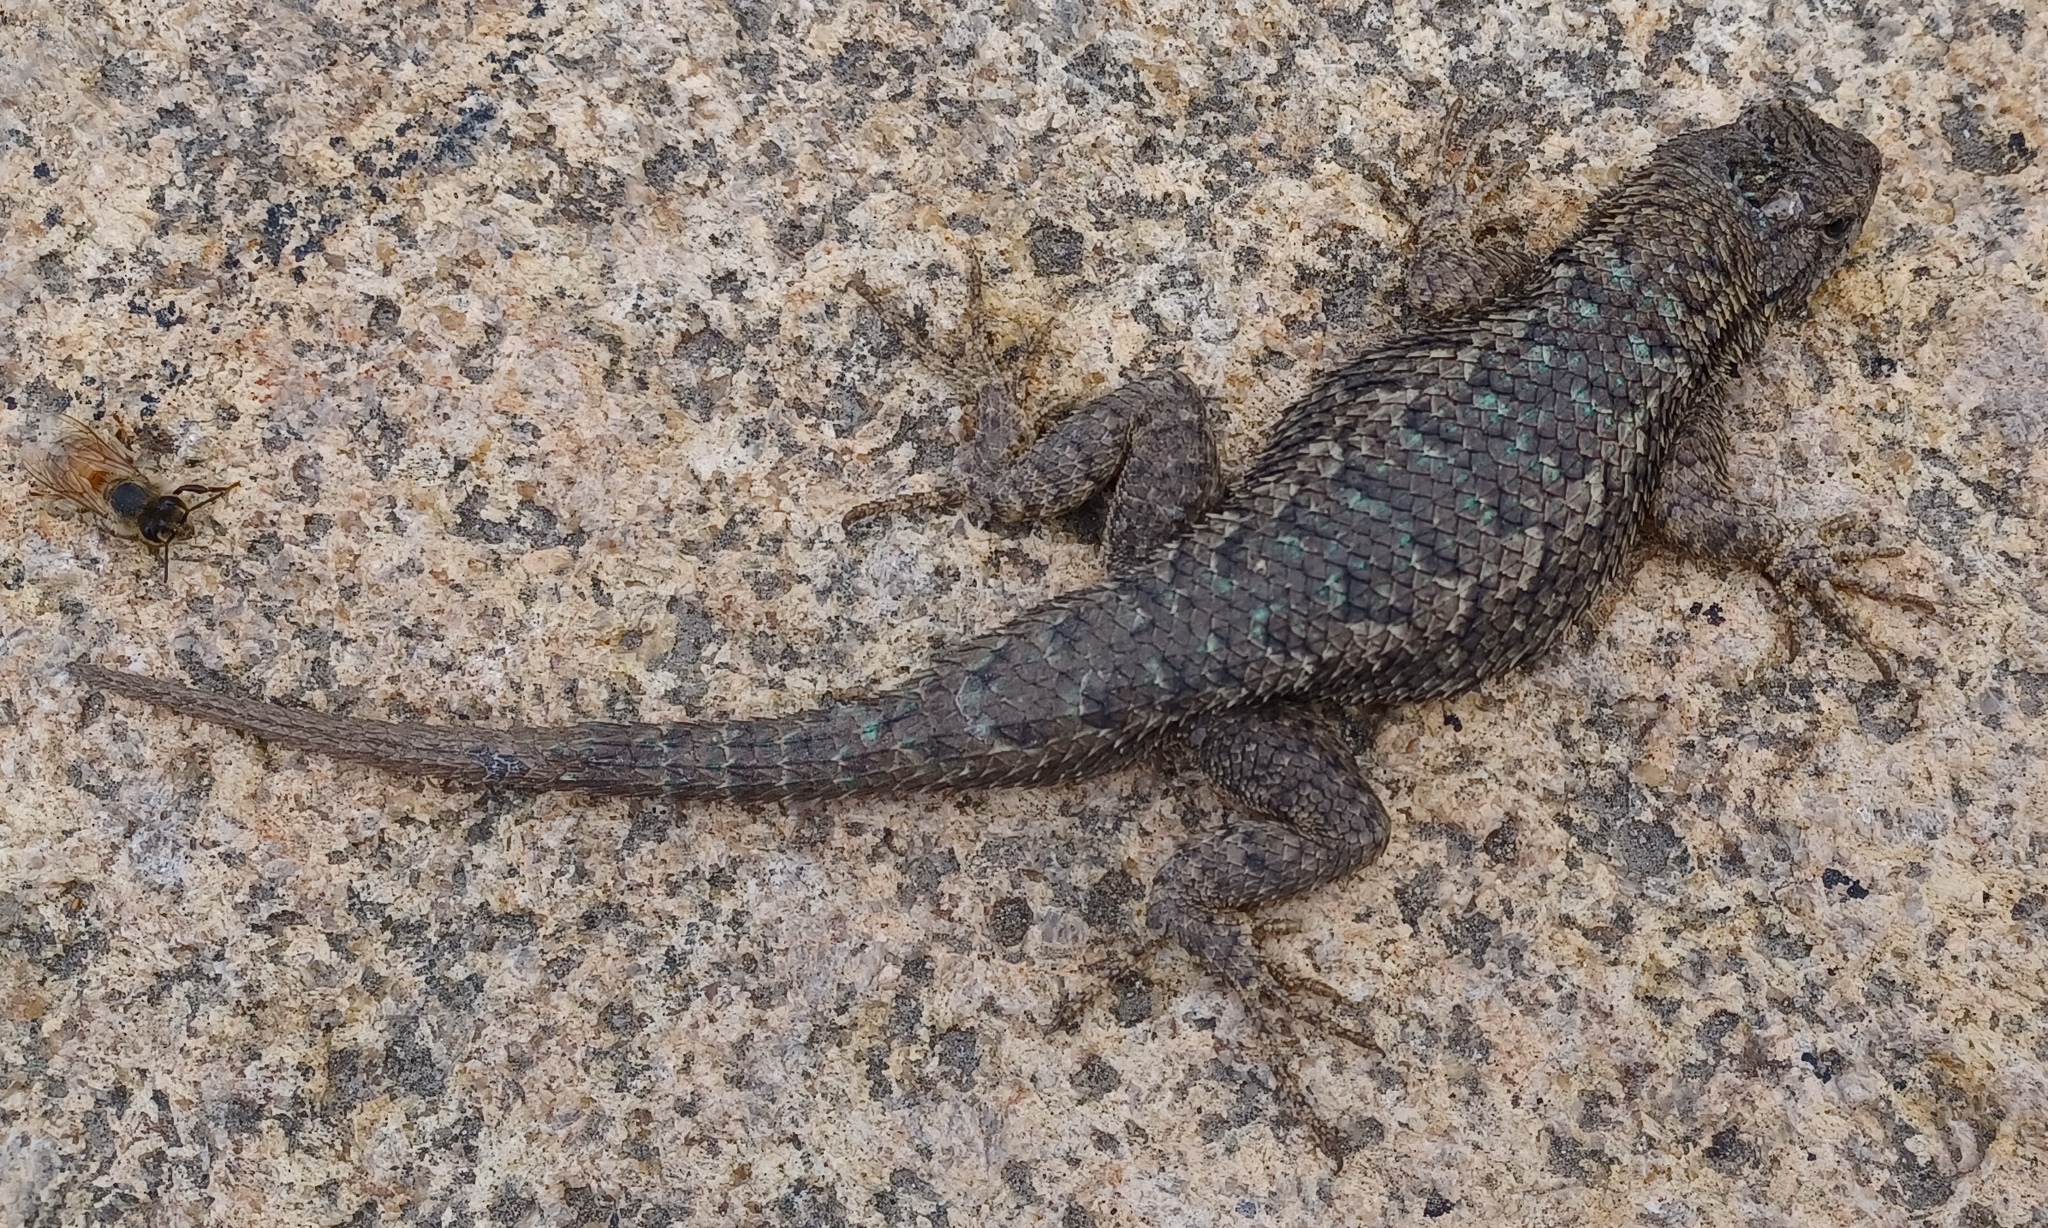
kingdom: Animalia
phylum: Chordata
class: Squamata
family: Phrynosomatidae
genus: Sceloporus
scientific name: Sceloporus occidentalis
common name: Western fence lizard
